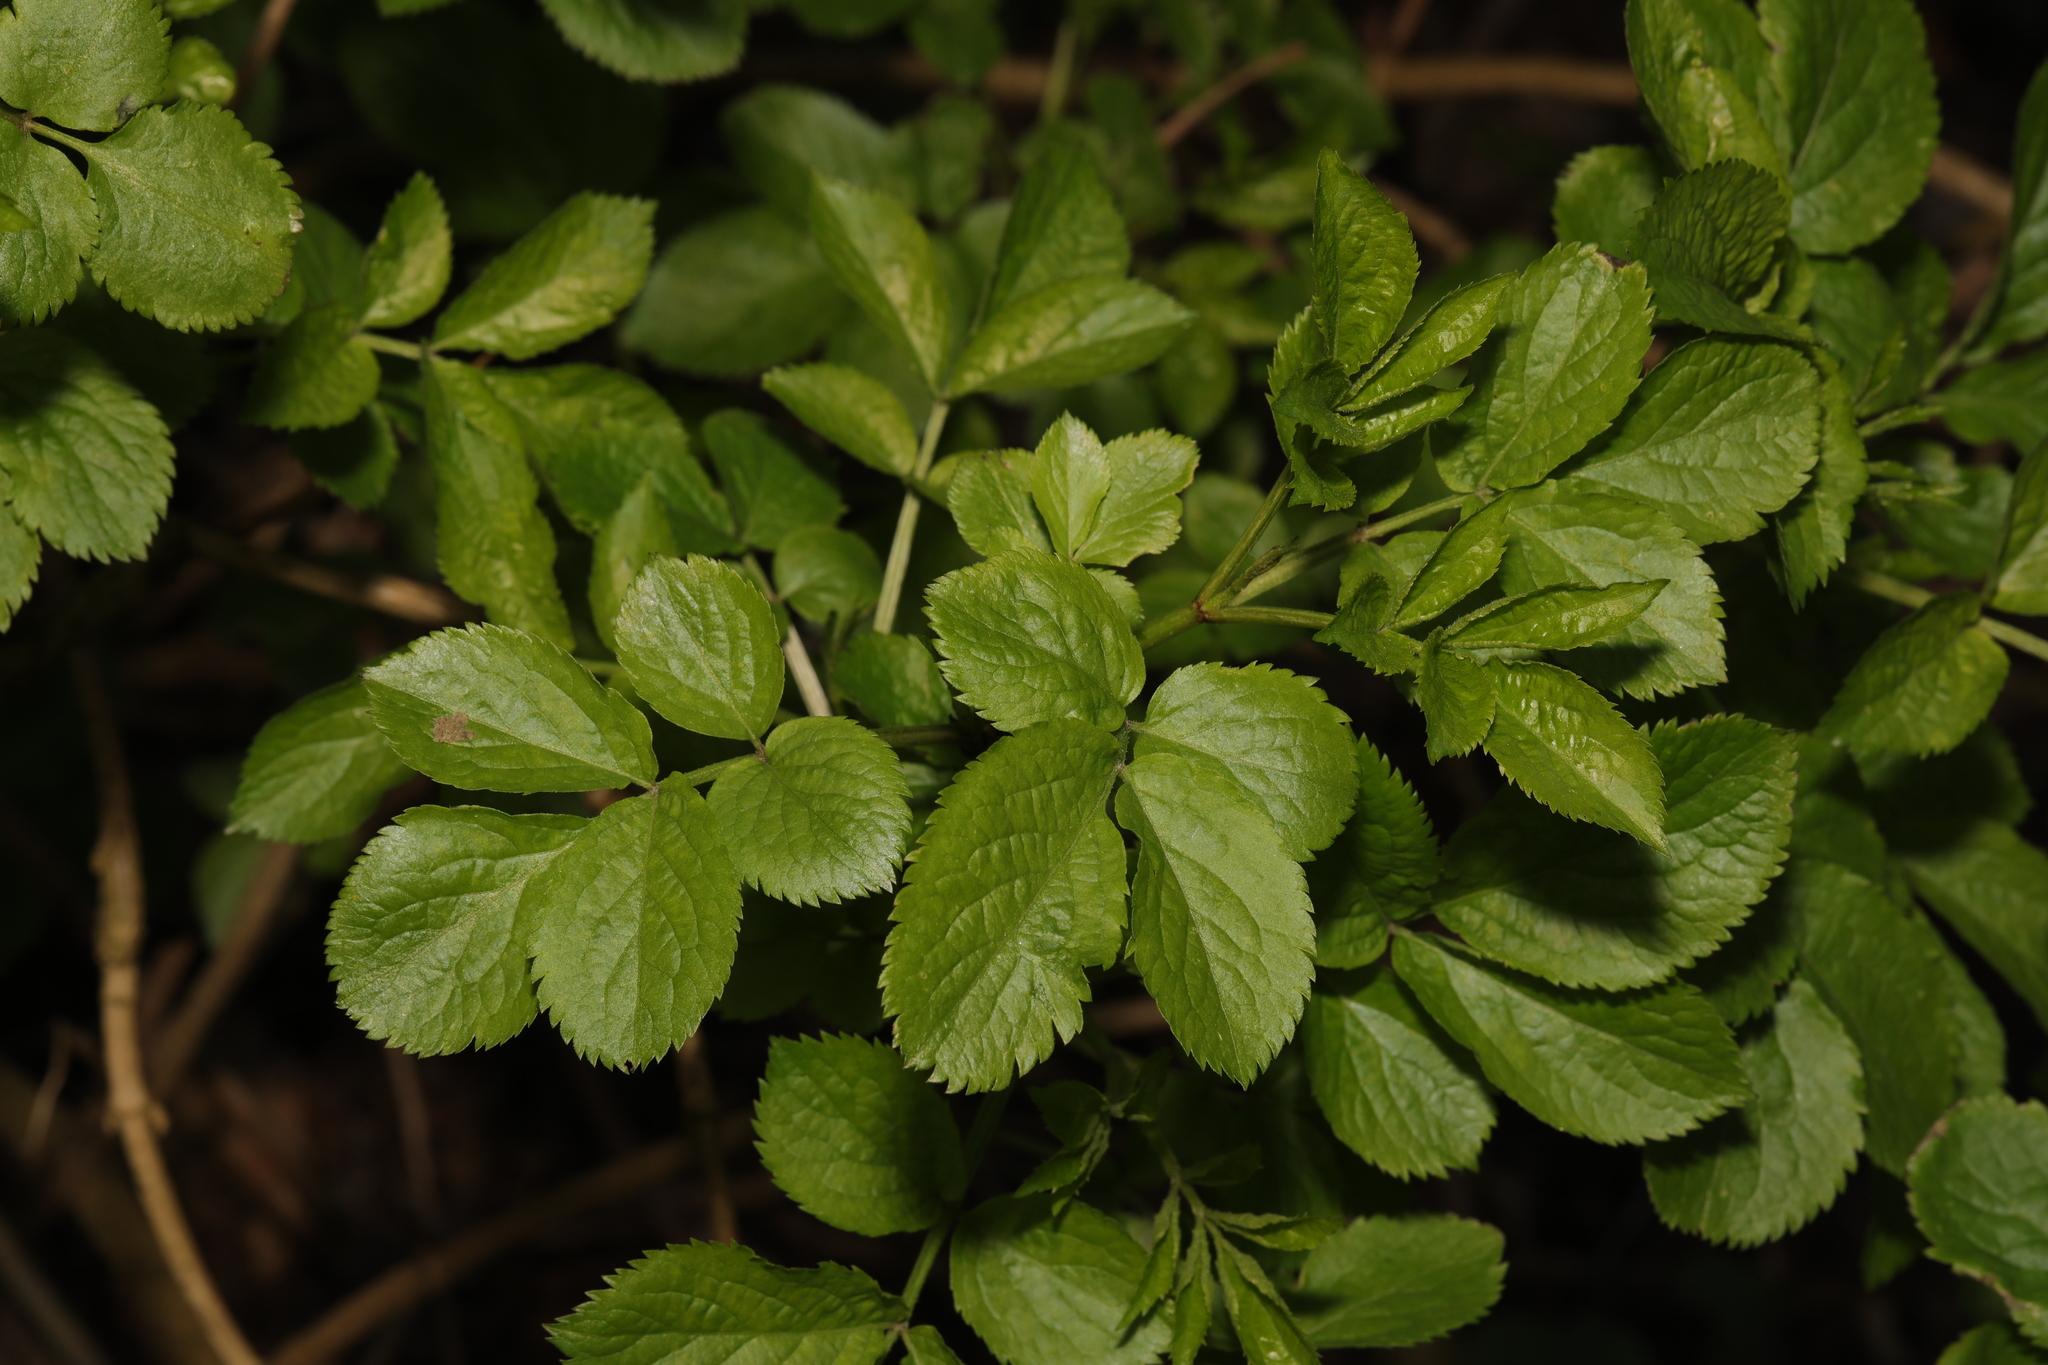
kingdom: Plantae
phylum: Tracheophyta
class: Magnoliopsida
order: Dipsacales
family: Viburnaceae
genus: Sambucus
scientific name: Sambucus nigra
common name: Elder
